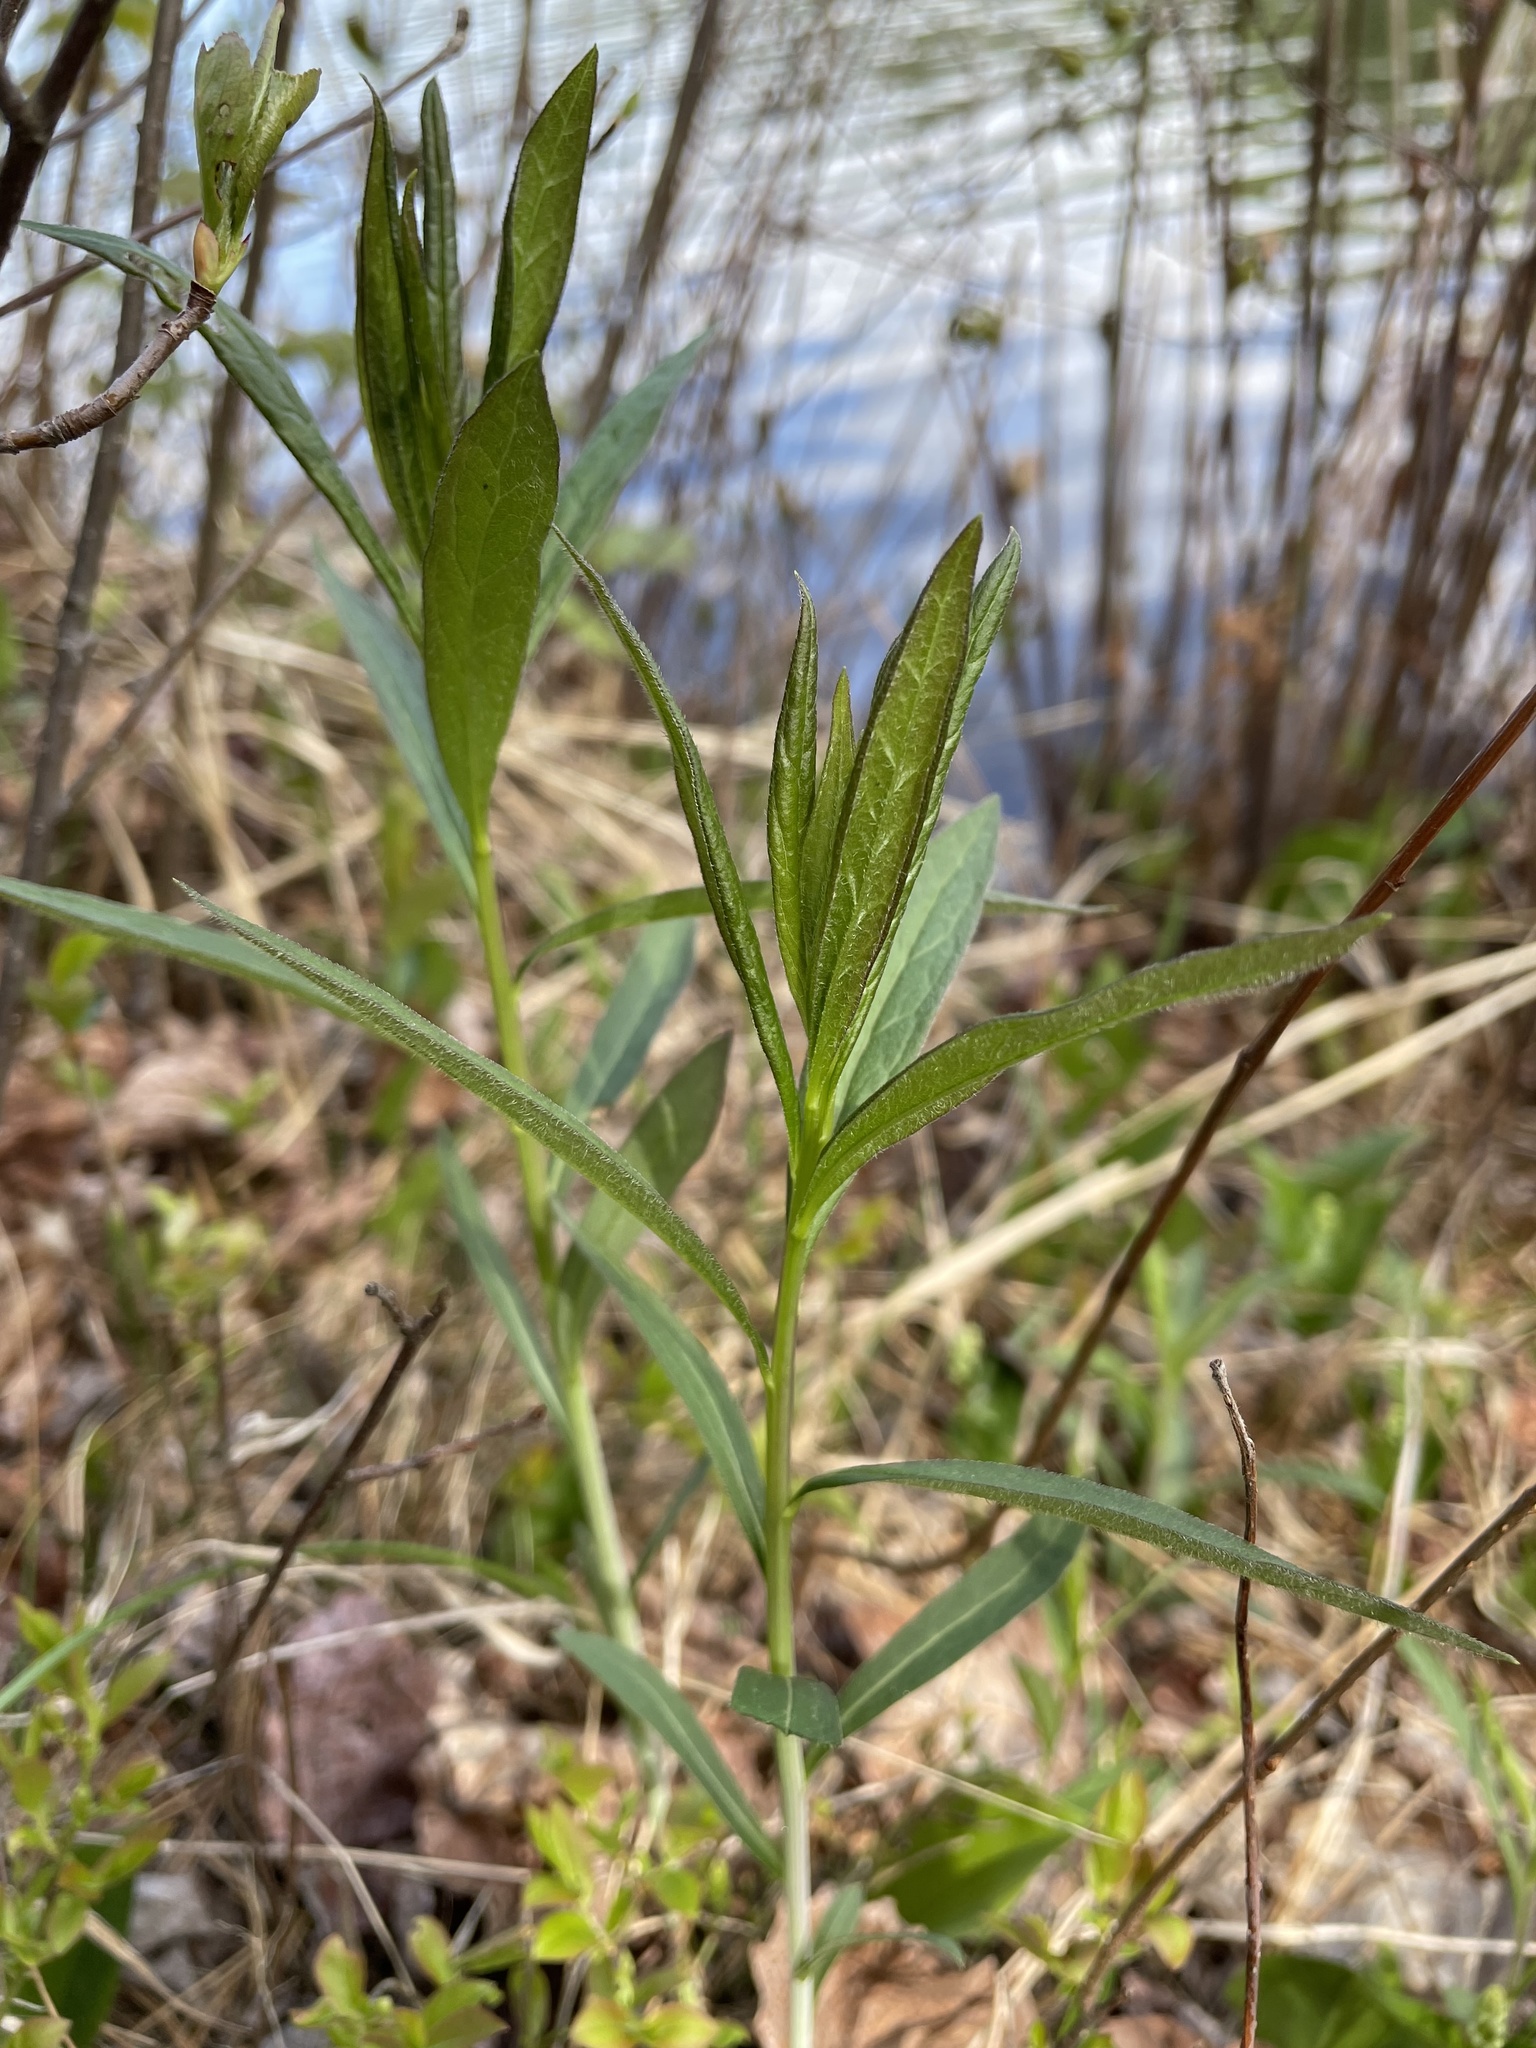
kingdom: Plantae
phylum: Tracheophyta
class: Magnoliopsida
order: Asterales
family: Asteraceae
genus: Doellingeria
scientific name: Doellingeria umbellata
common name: Flat-top white aster
